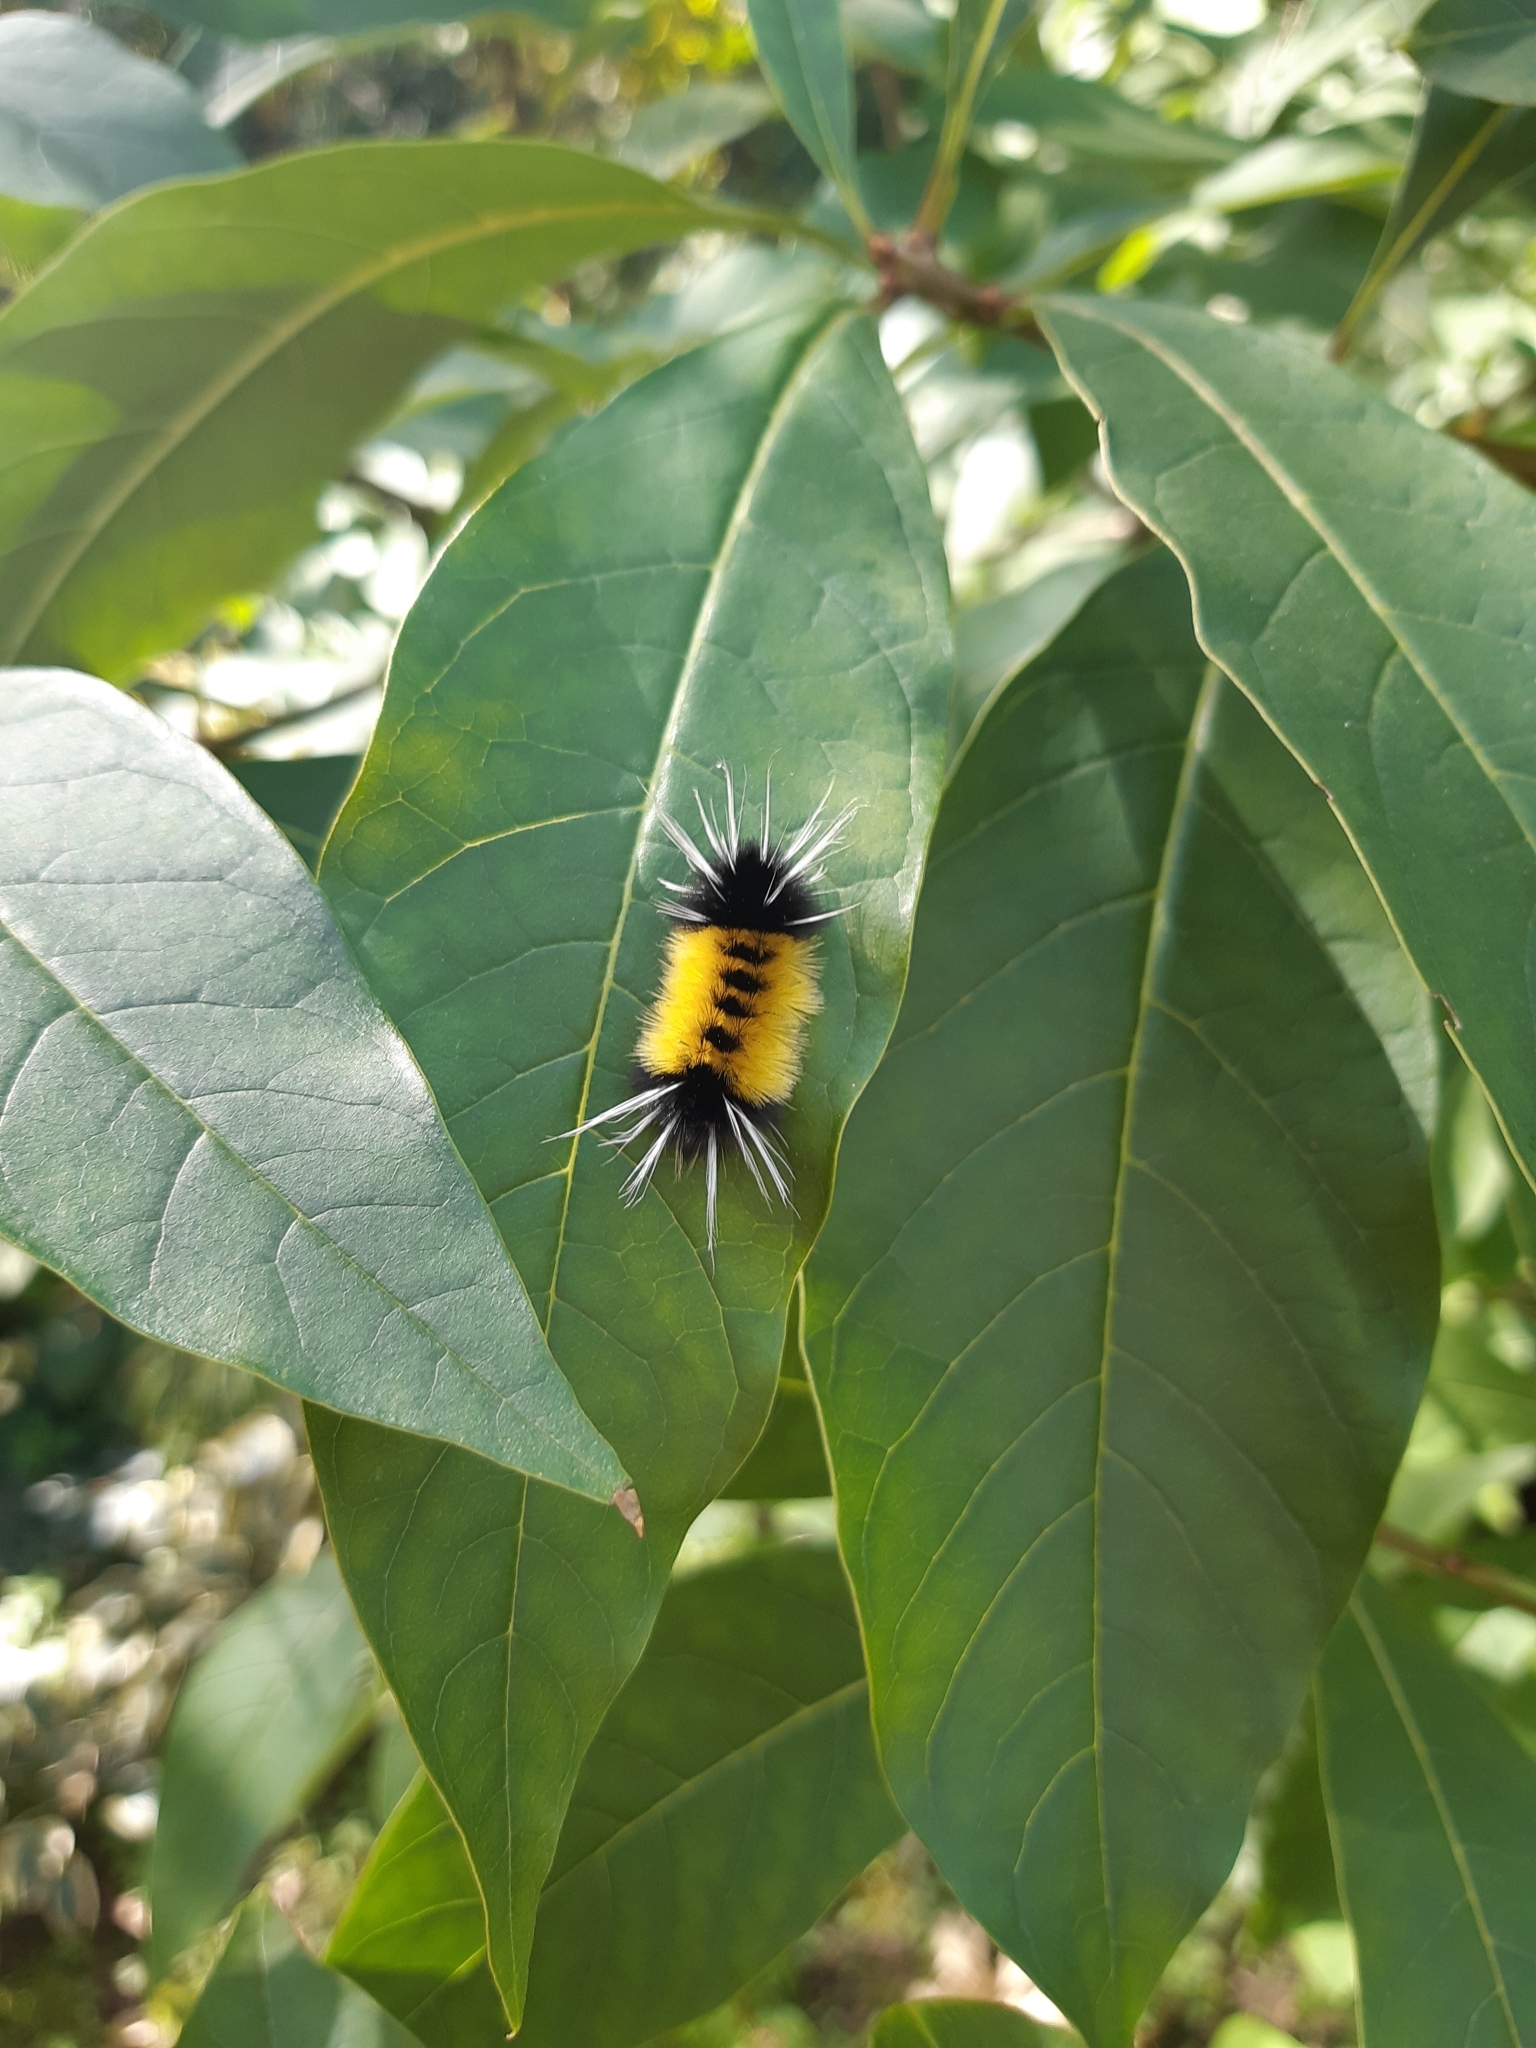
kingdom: Animalia
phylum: Arthropoda
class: Insecta
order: Lepidoptera
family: Erebidae
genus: Lophocampa
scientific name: Lophocampa maculata
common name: Spotted tussock moth
